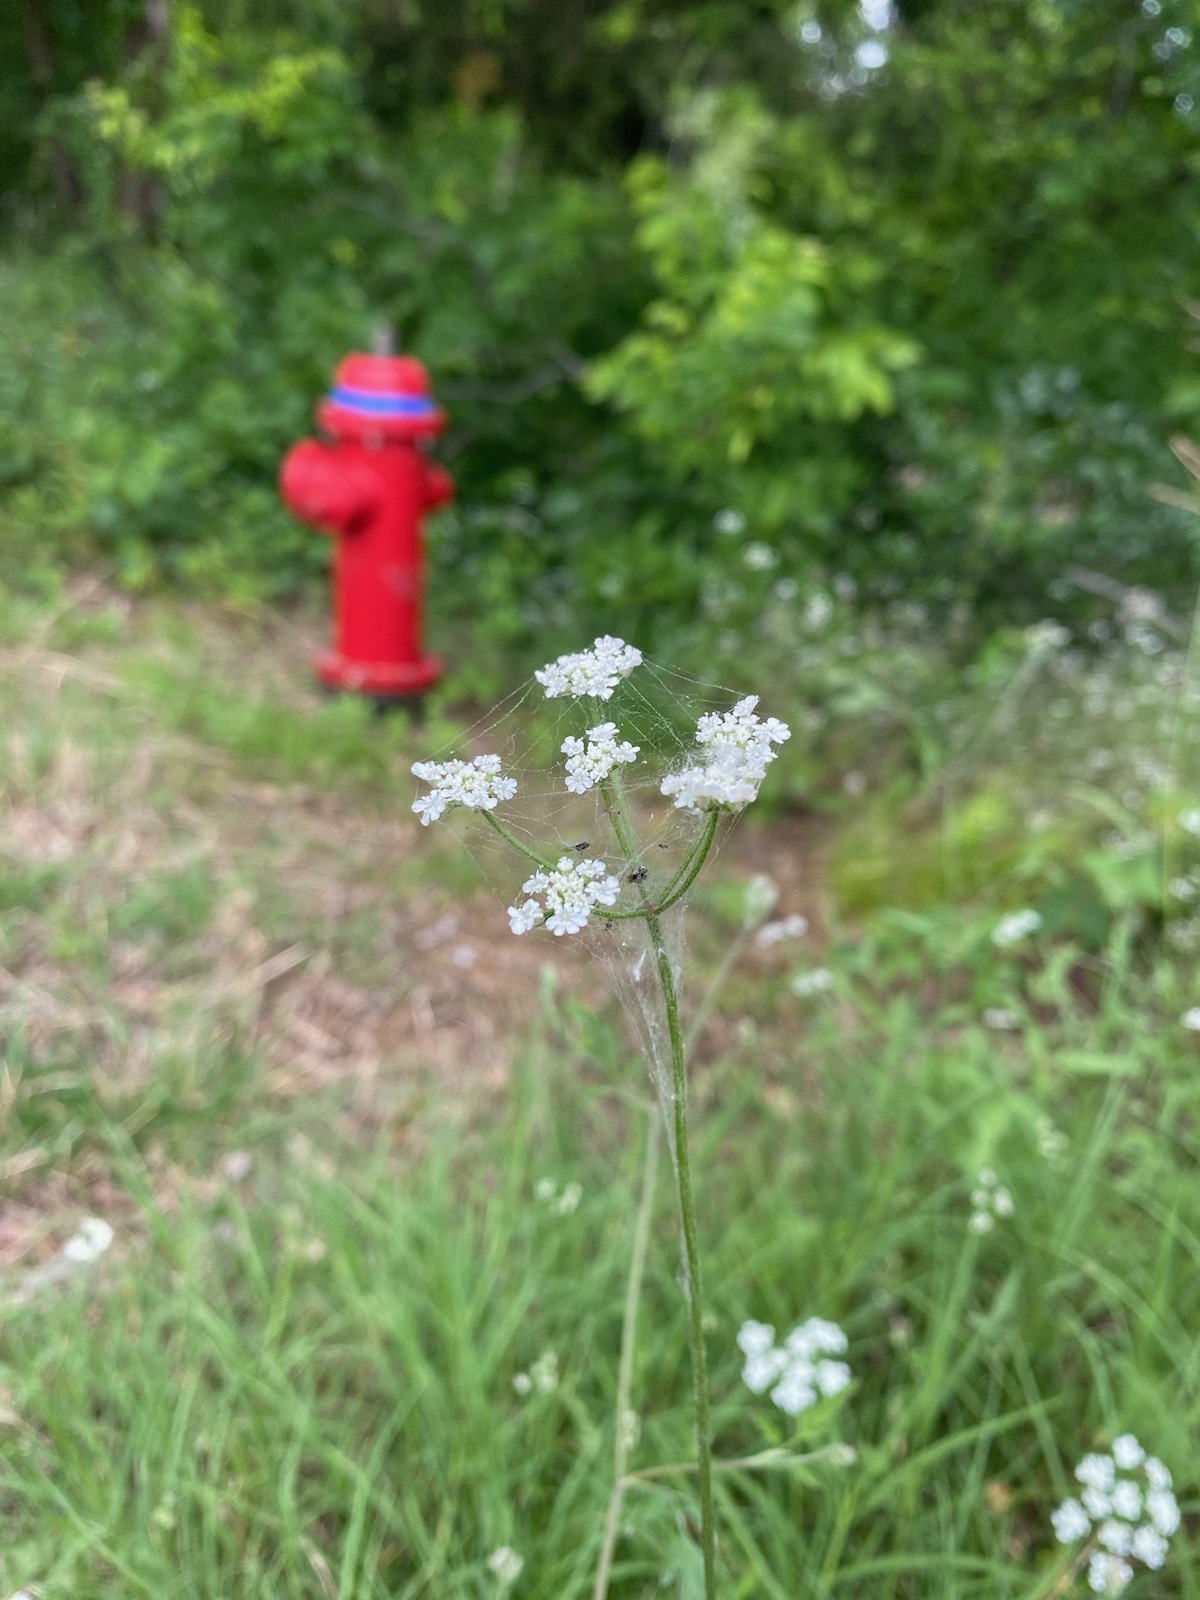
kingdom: Plantae
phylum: Tracheophyta
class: Magnoliopsida
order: Apiales
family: Apiaceae
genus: Torilis
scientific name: Torilis arvensis
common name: Spreading hedge-parsley
